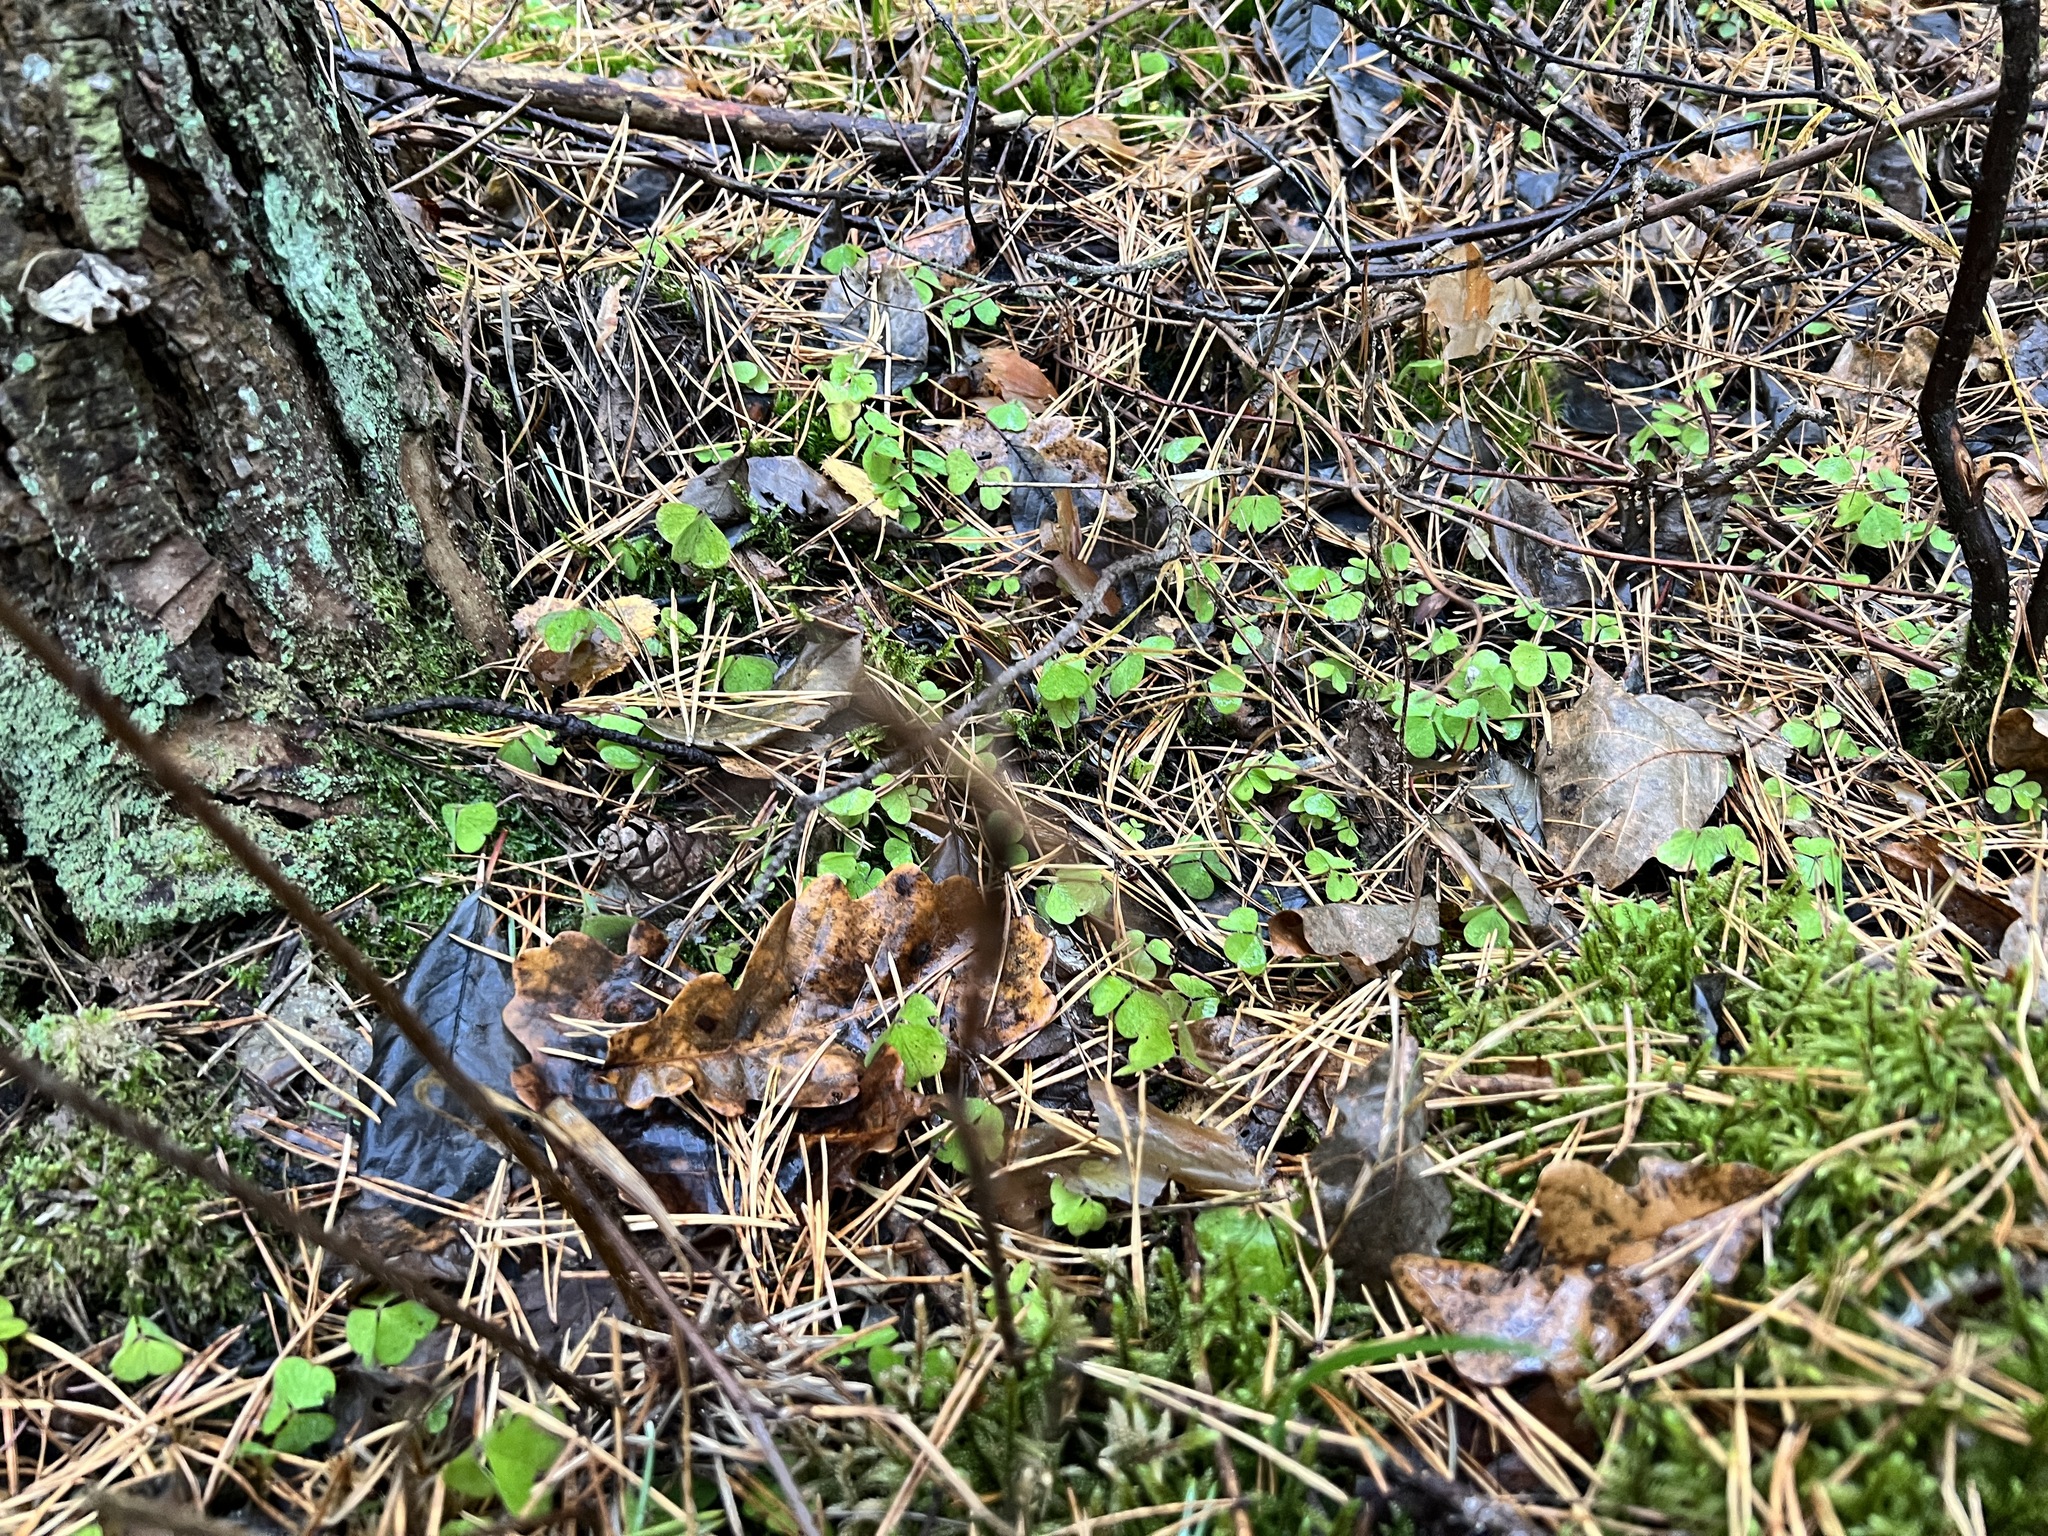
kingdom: Plantae
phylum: Tracheophyta
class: Magnoliopsida
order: Oxalidales
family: Oxalidaceae
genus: Oxalis
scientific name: Oxalis acetosella
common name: Wood-sorrel
